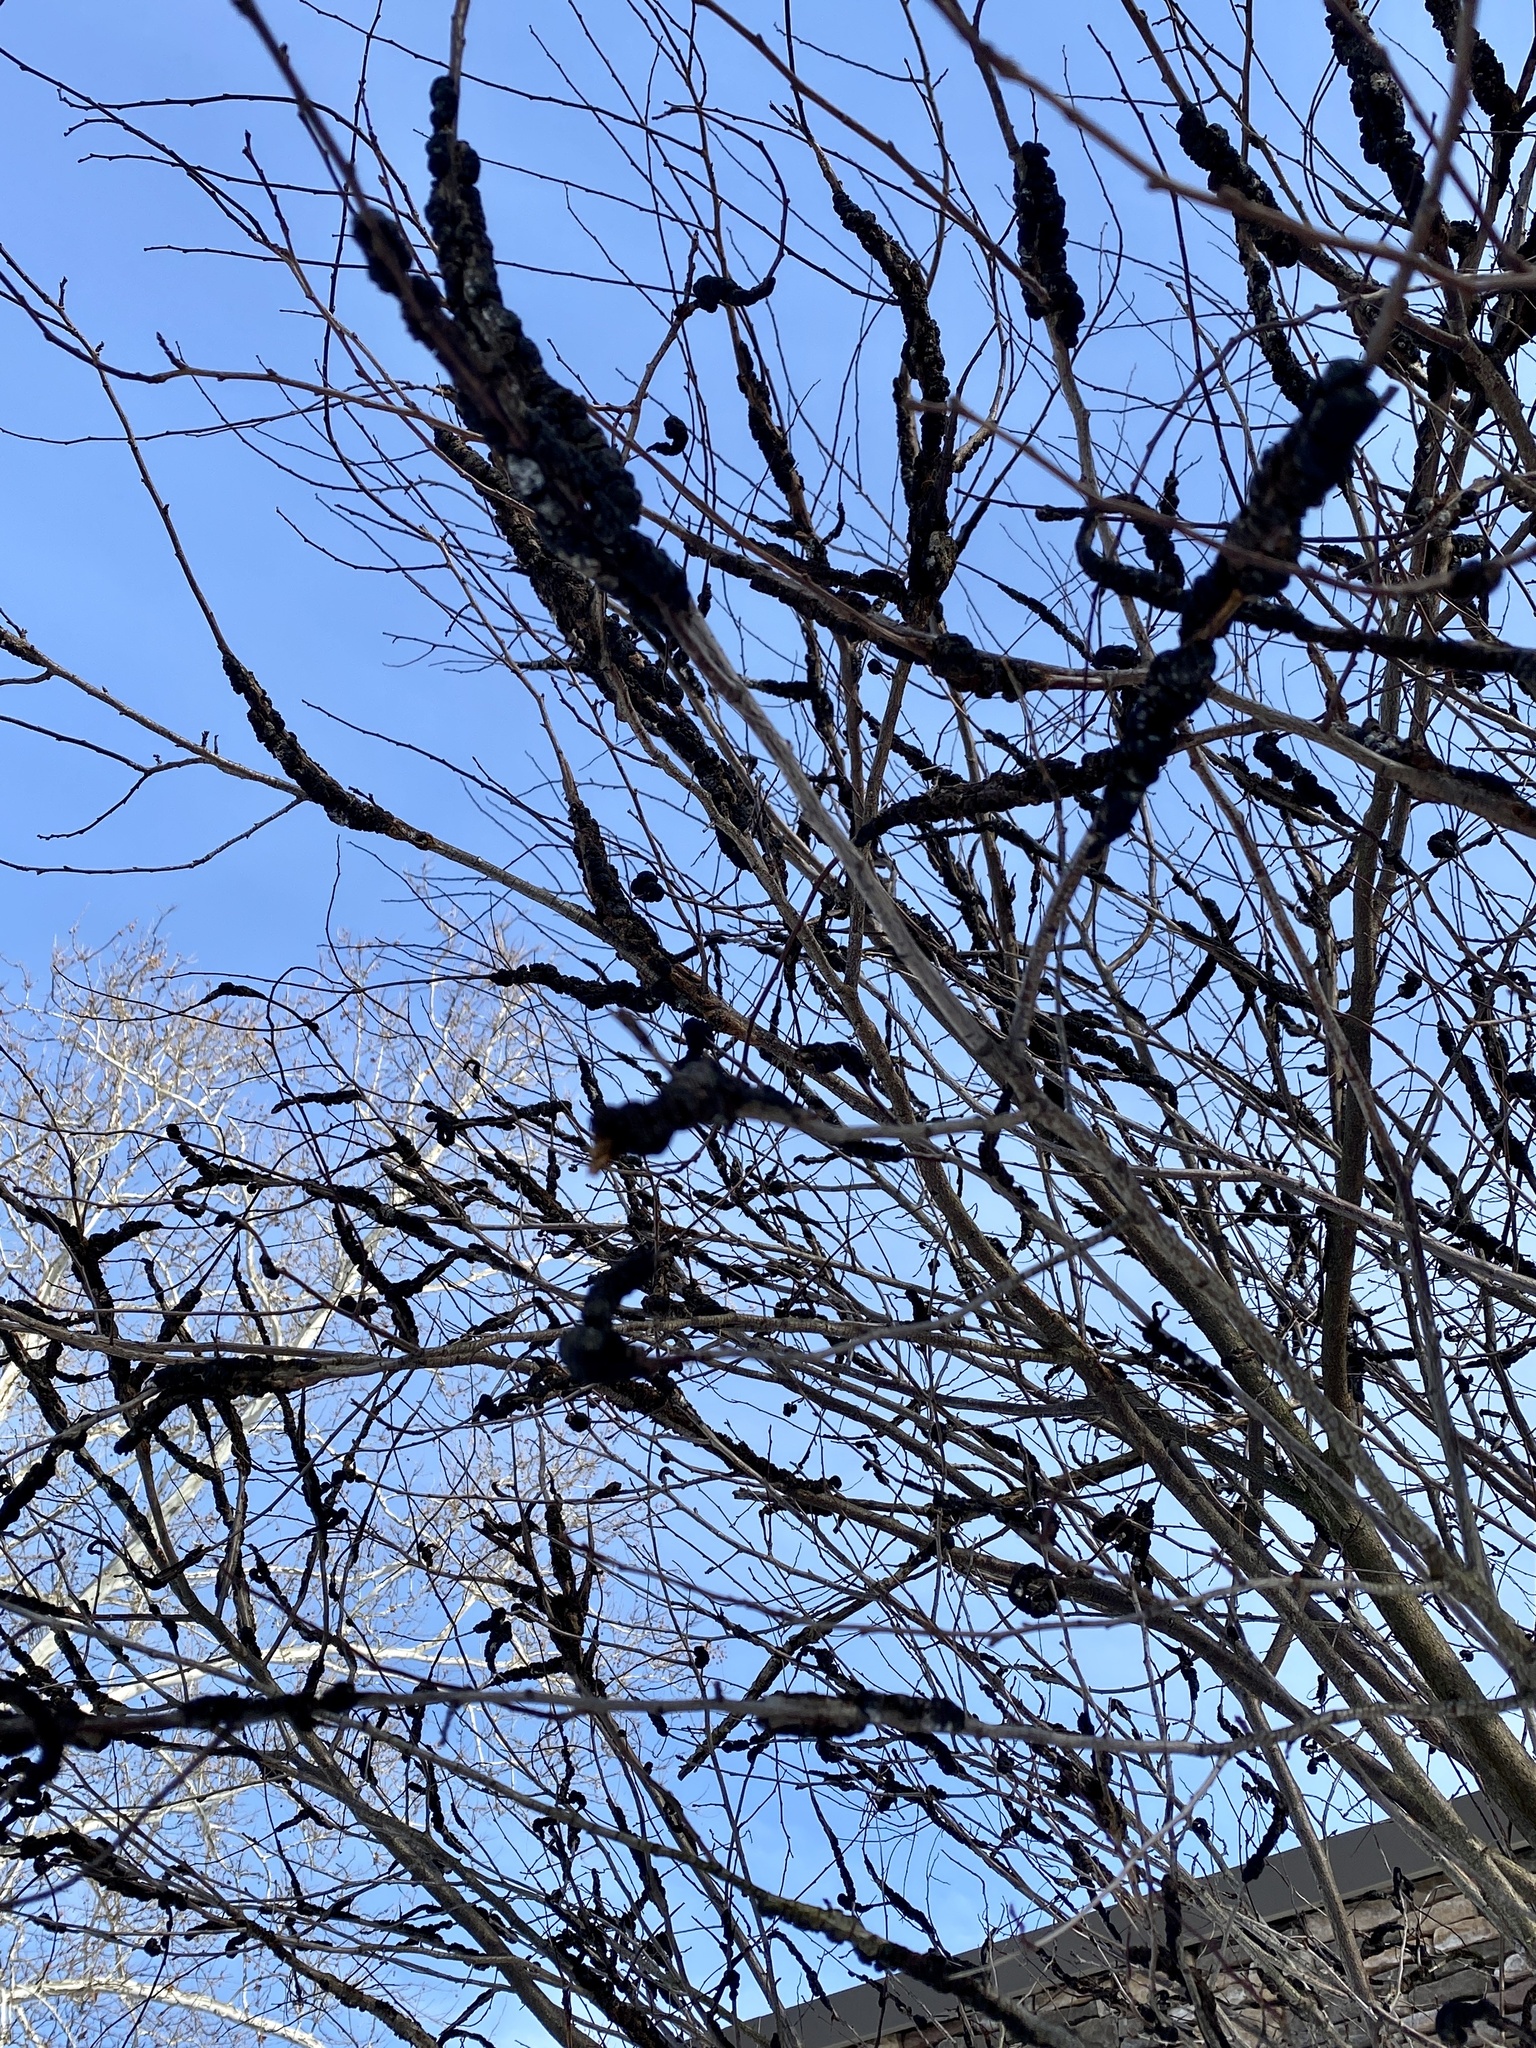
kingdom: Fungi
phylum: Ascomycota
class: Dothideomycetes
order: Venturiales
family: Venturiaceae
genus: Apiosporina
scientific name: Apiosporina morbosa
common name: Black knot
